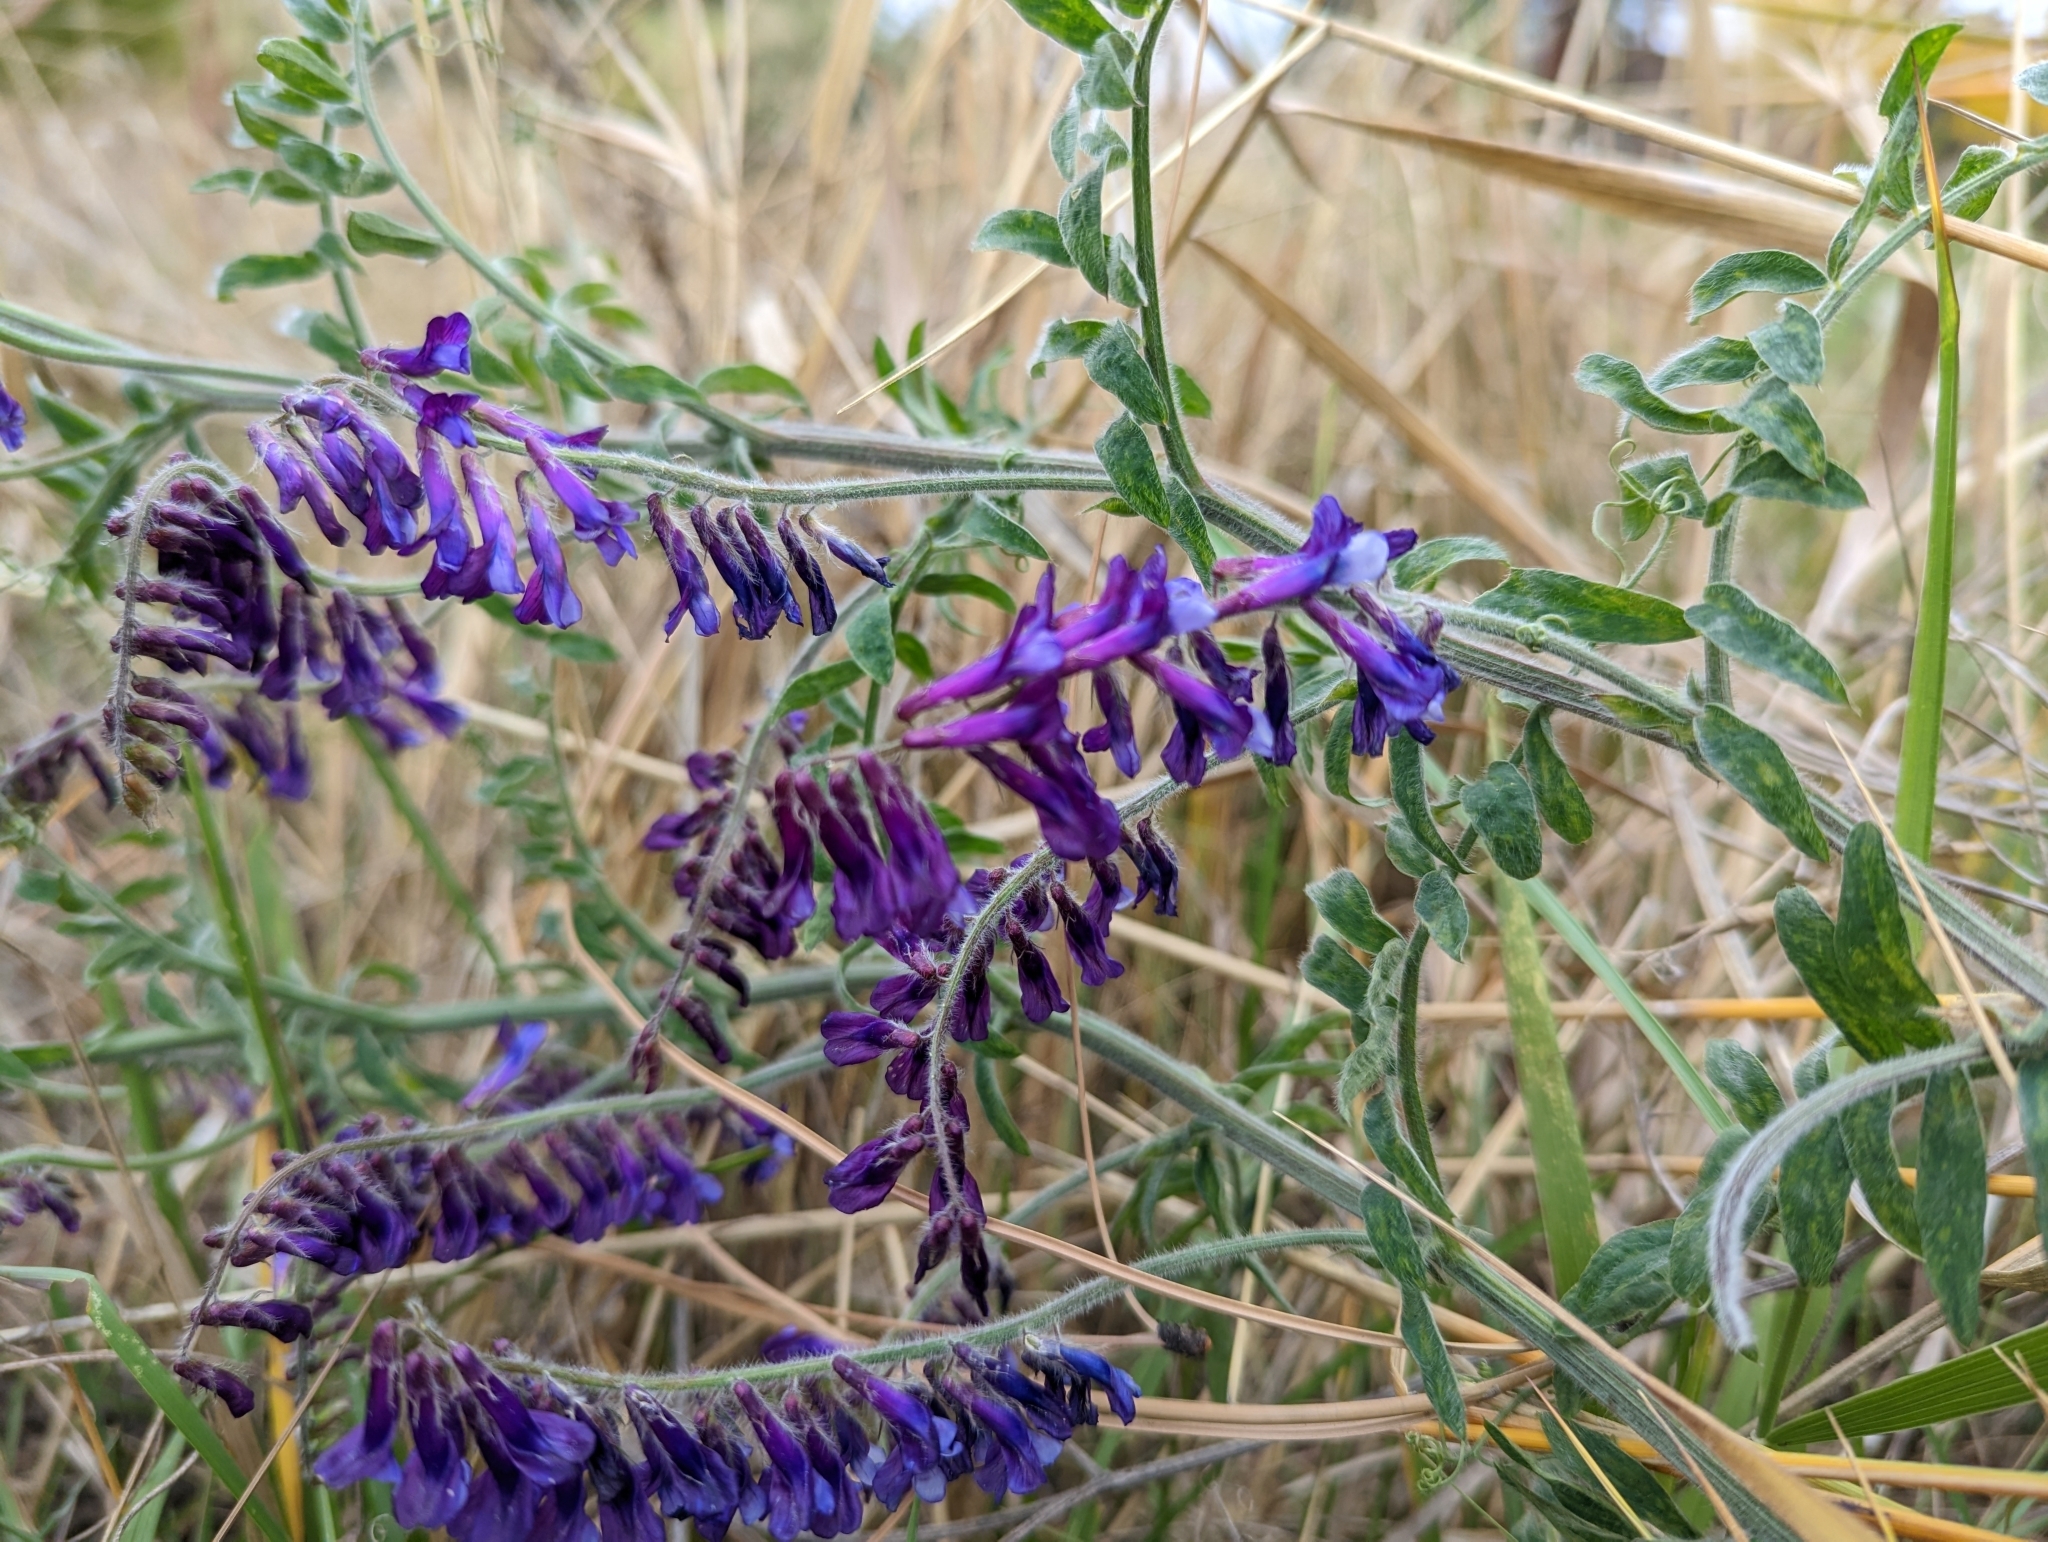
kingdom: Plantae
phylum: Tracheophyta
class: Magnoliopsida
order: Fabales
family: Fabaceae
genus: Vicia
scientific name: Vicia villosa
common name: Fodder vetch
